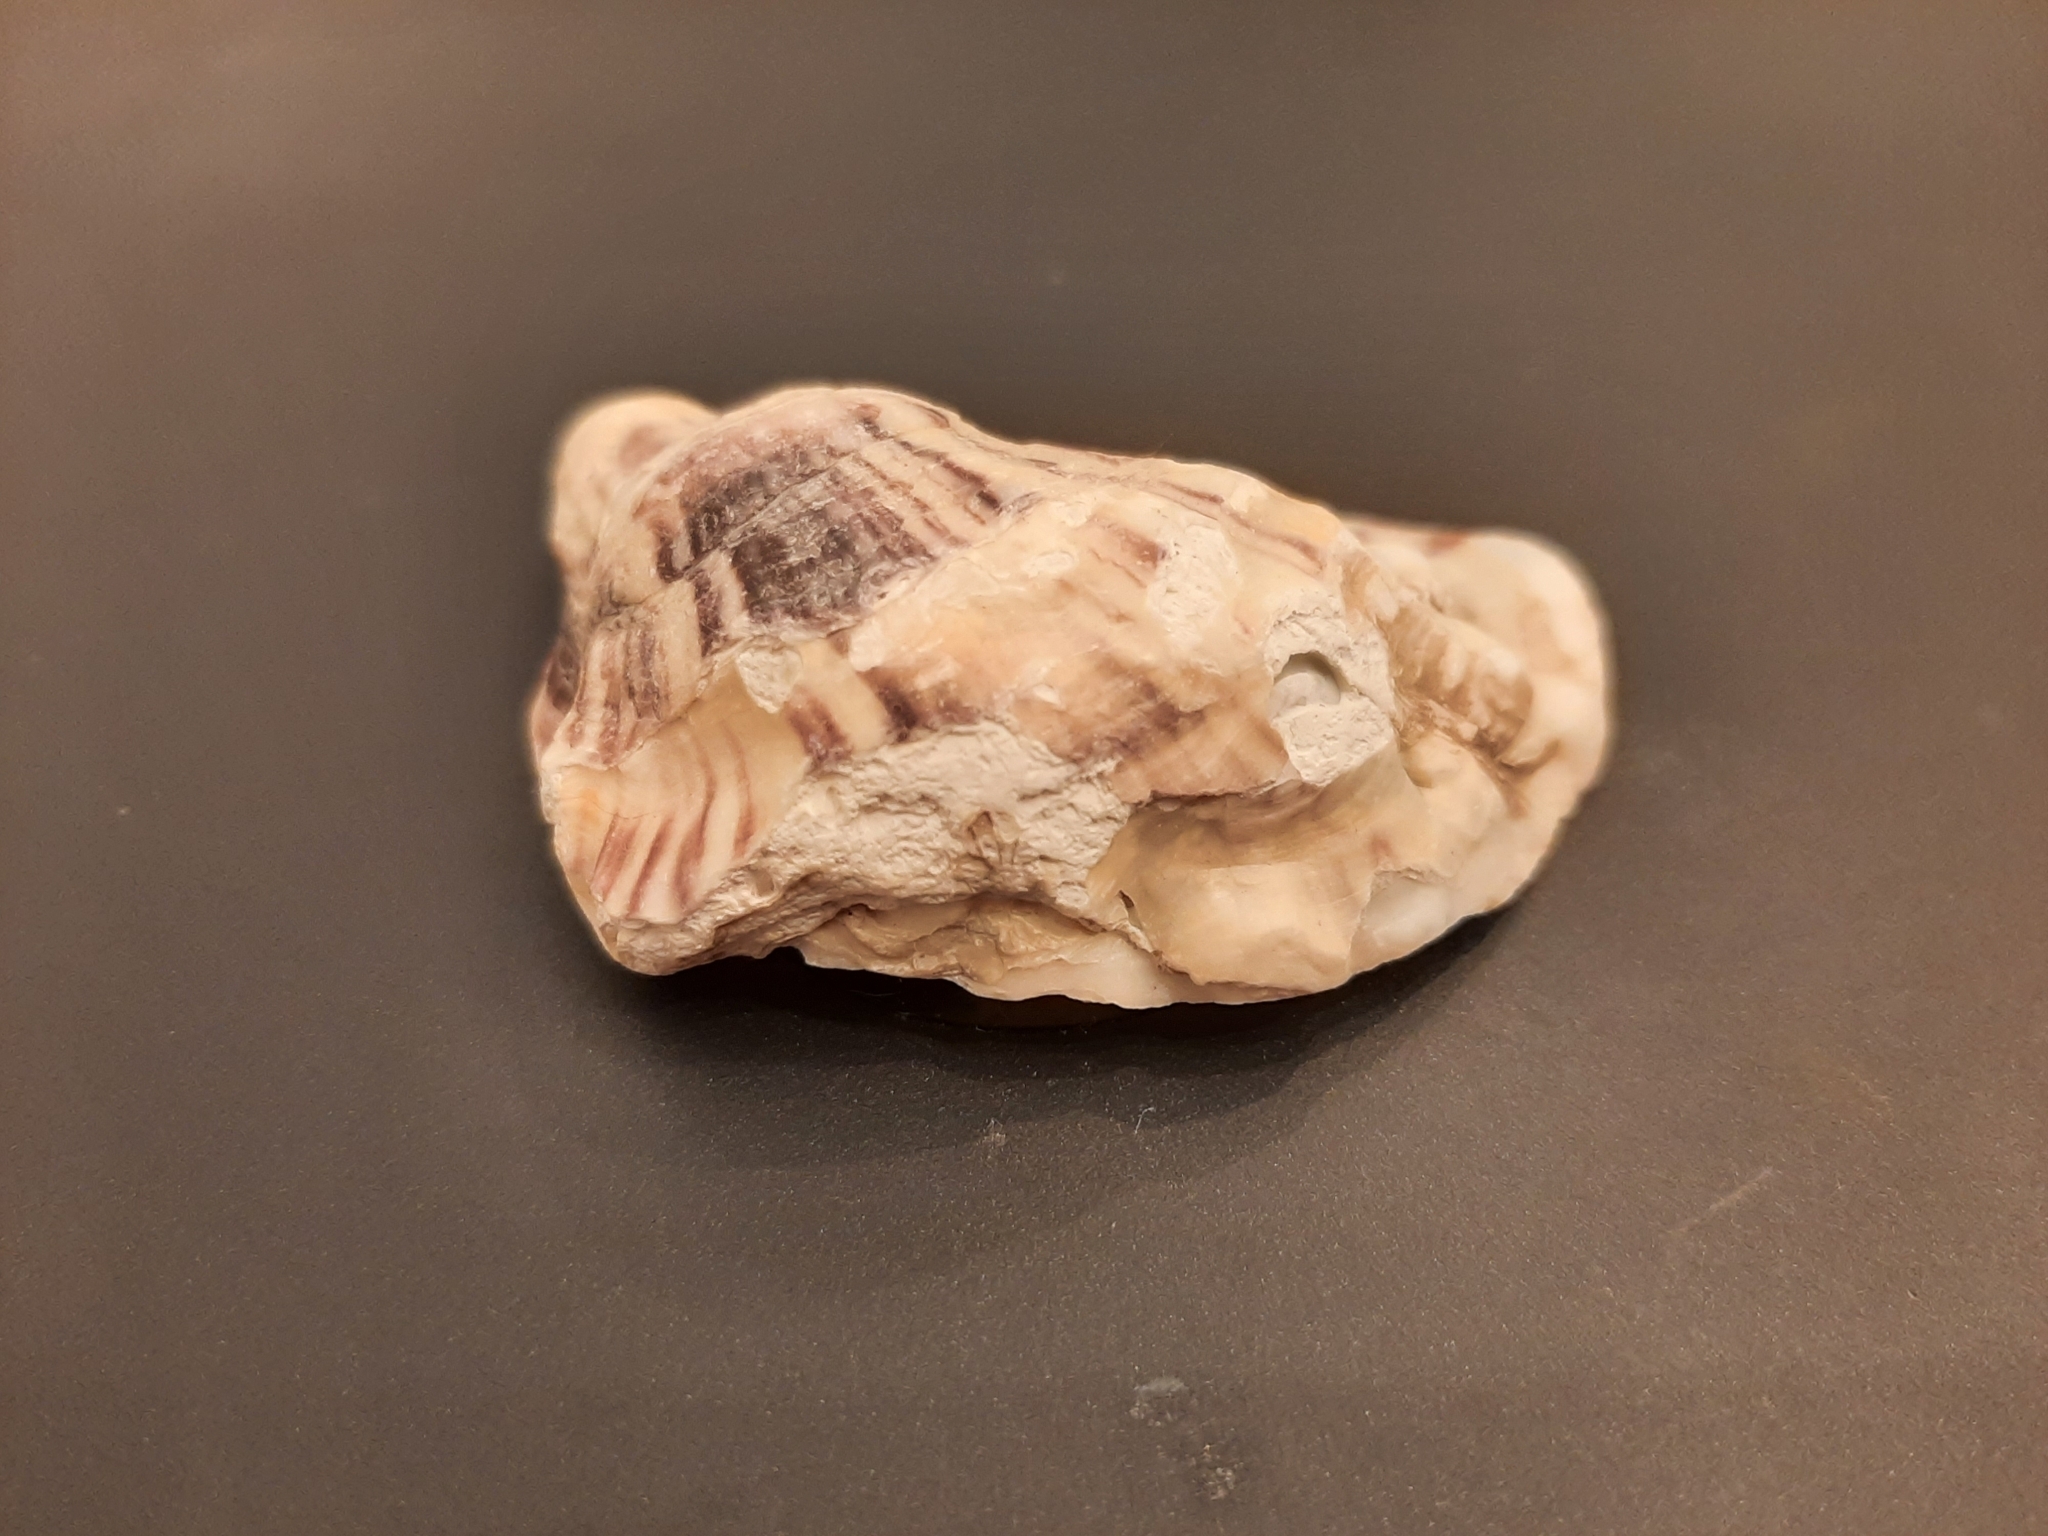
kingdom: Animalia
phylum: Mollusca
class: Bivalvia
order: Ostreida
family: Ostreidae
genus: Magallana
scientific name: Magallana gigas
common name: Pacific oyster
